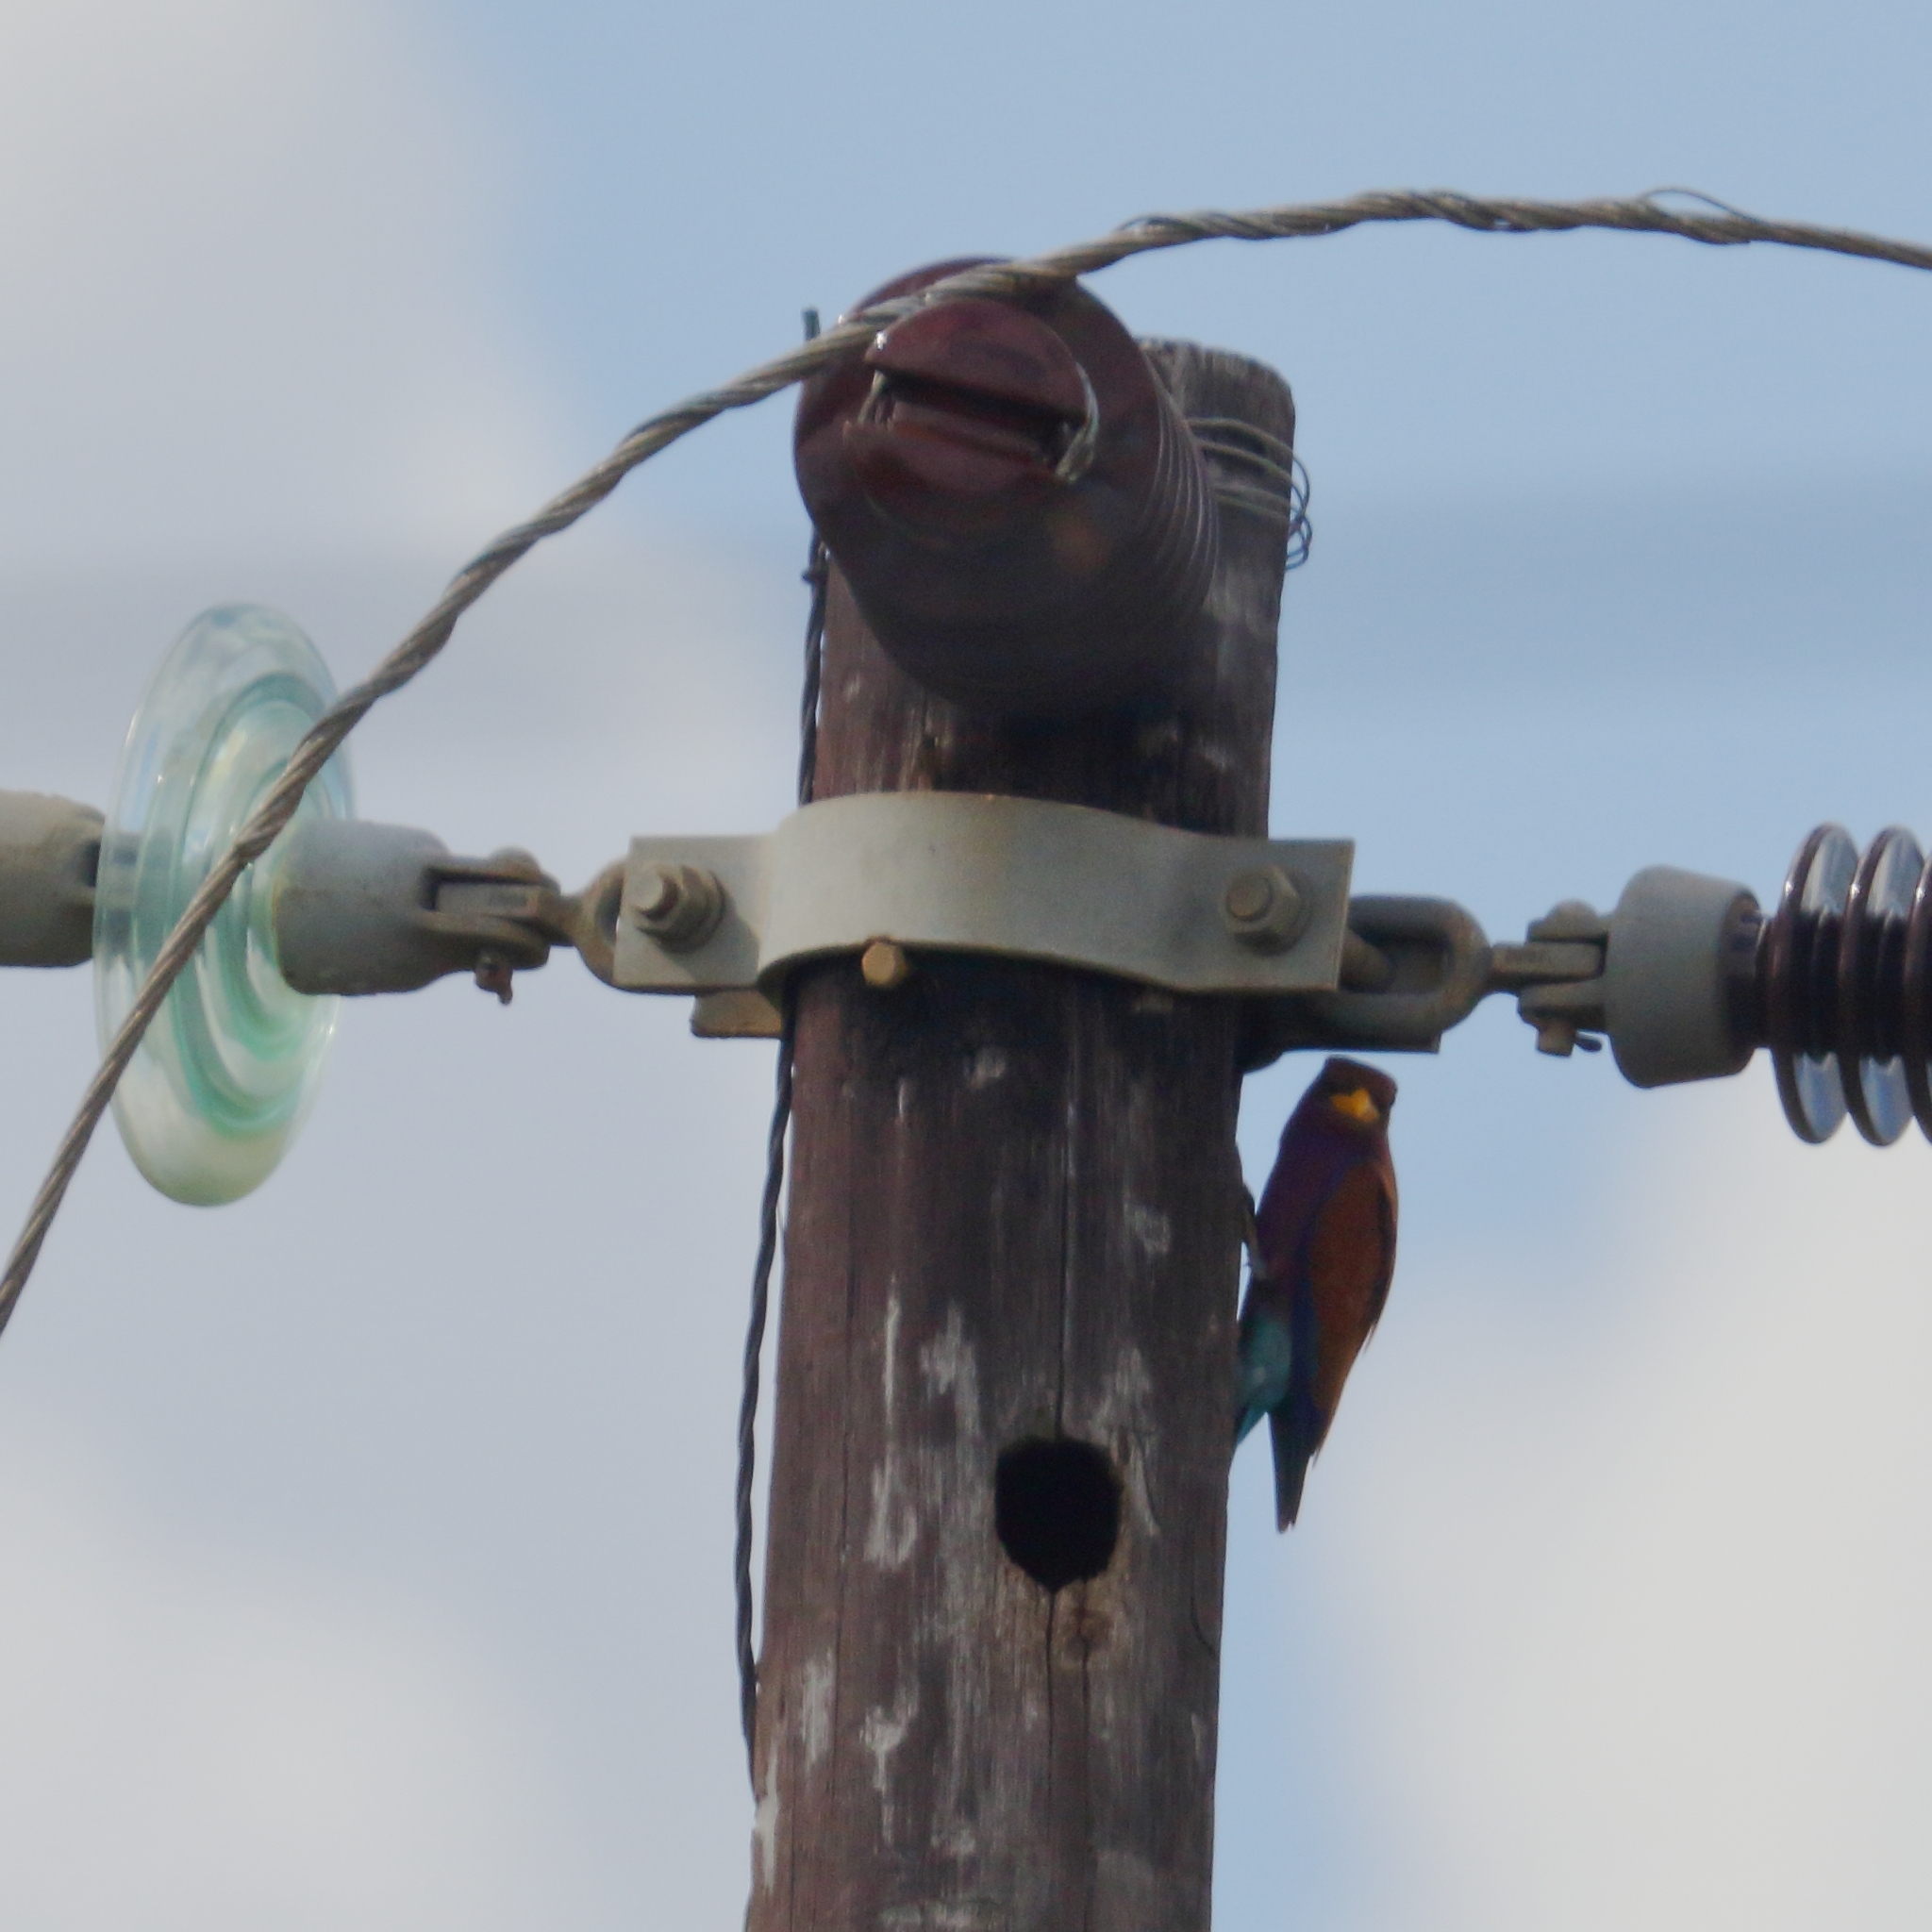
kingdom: Animalia
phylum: Chordata
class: Aves
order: Coraciiformes
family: Coraciidae
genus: Eurystomus
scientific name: Eurystomus glaucurus
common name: Broad-billed roller
